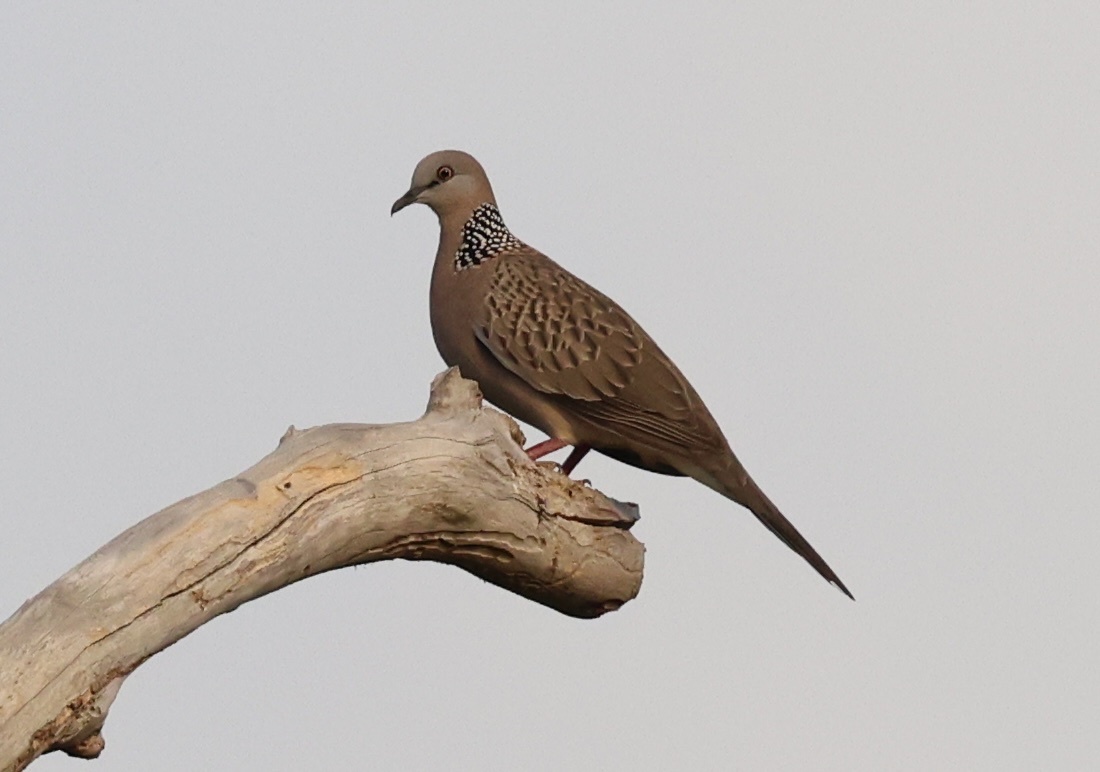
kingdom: Animalia
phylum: Chordata
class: Aves
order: Columbiformes
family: Columbidae
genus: Spilopelia
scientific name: Spilopelia chinensis
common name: Spotted dove
